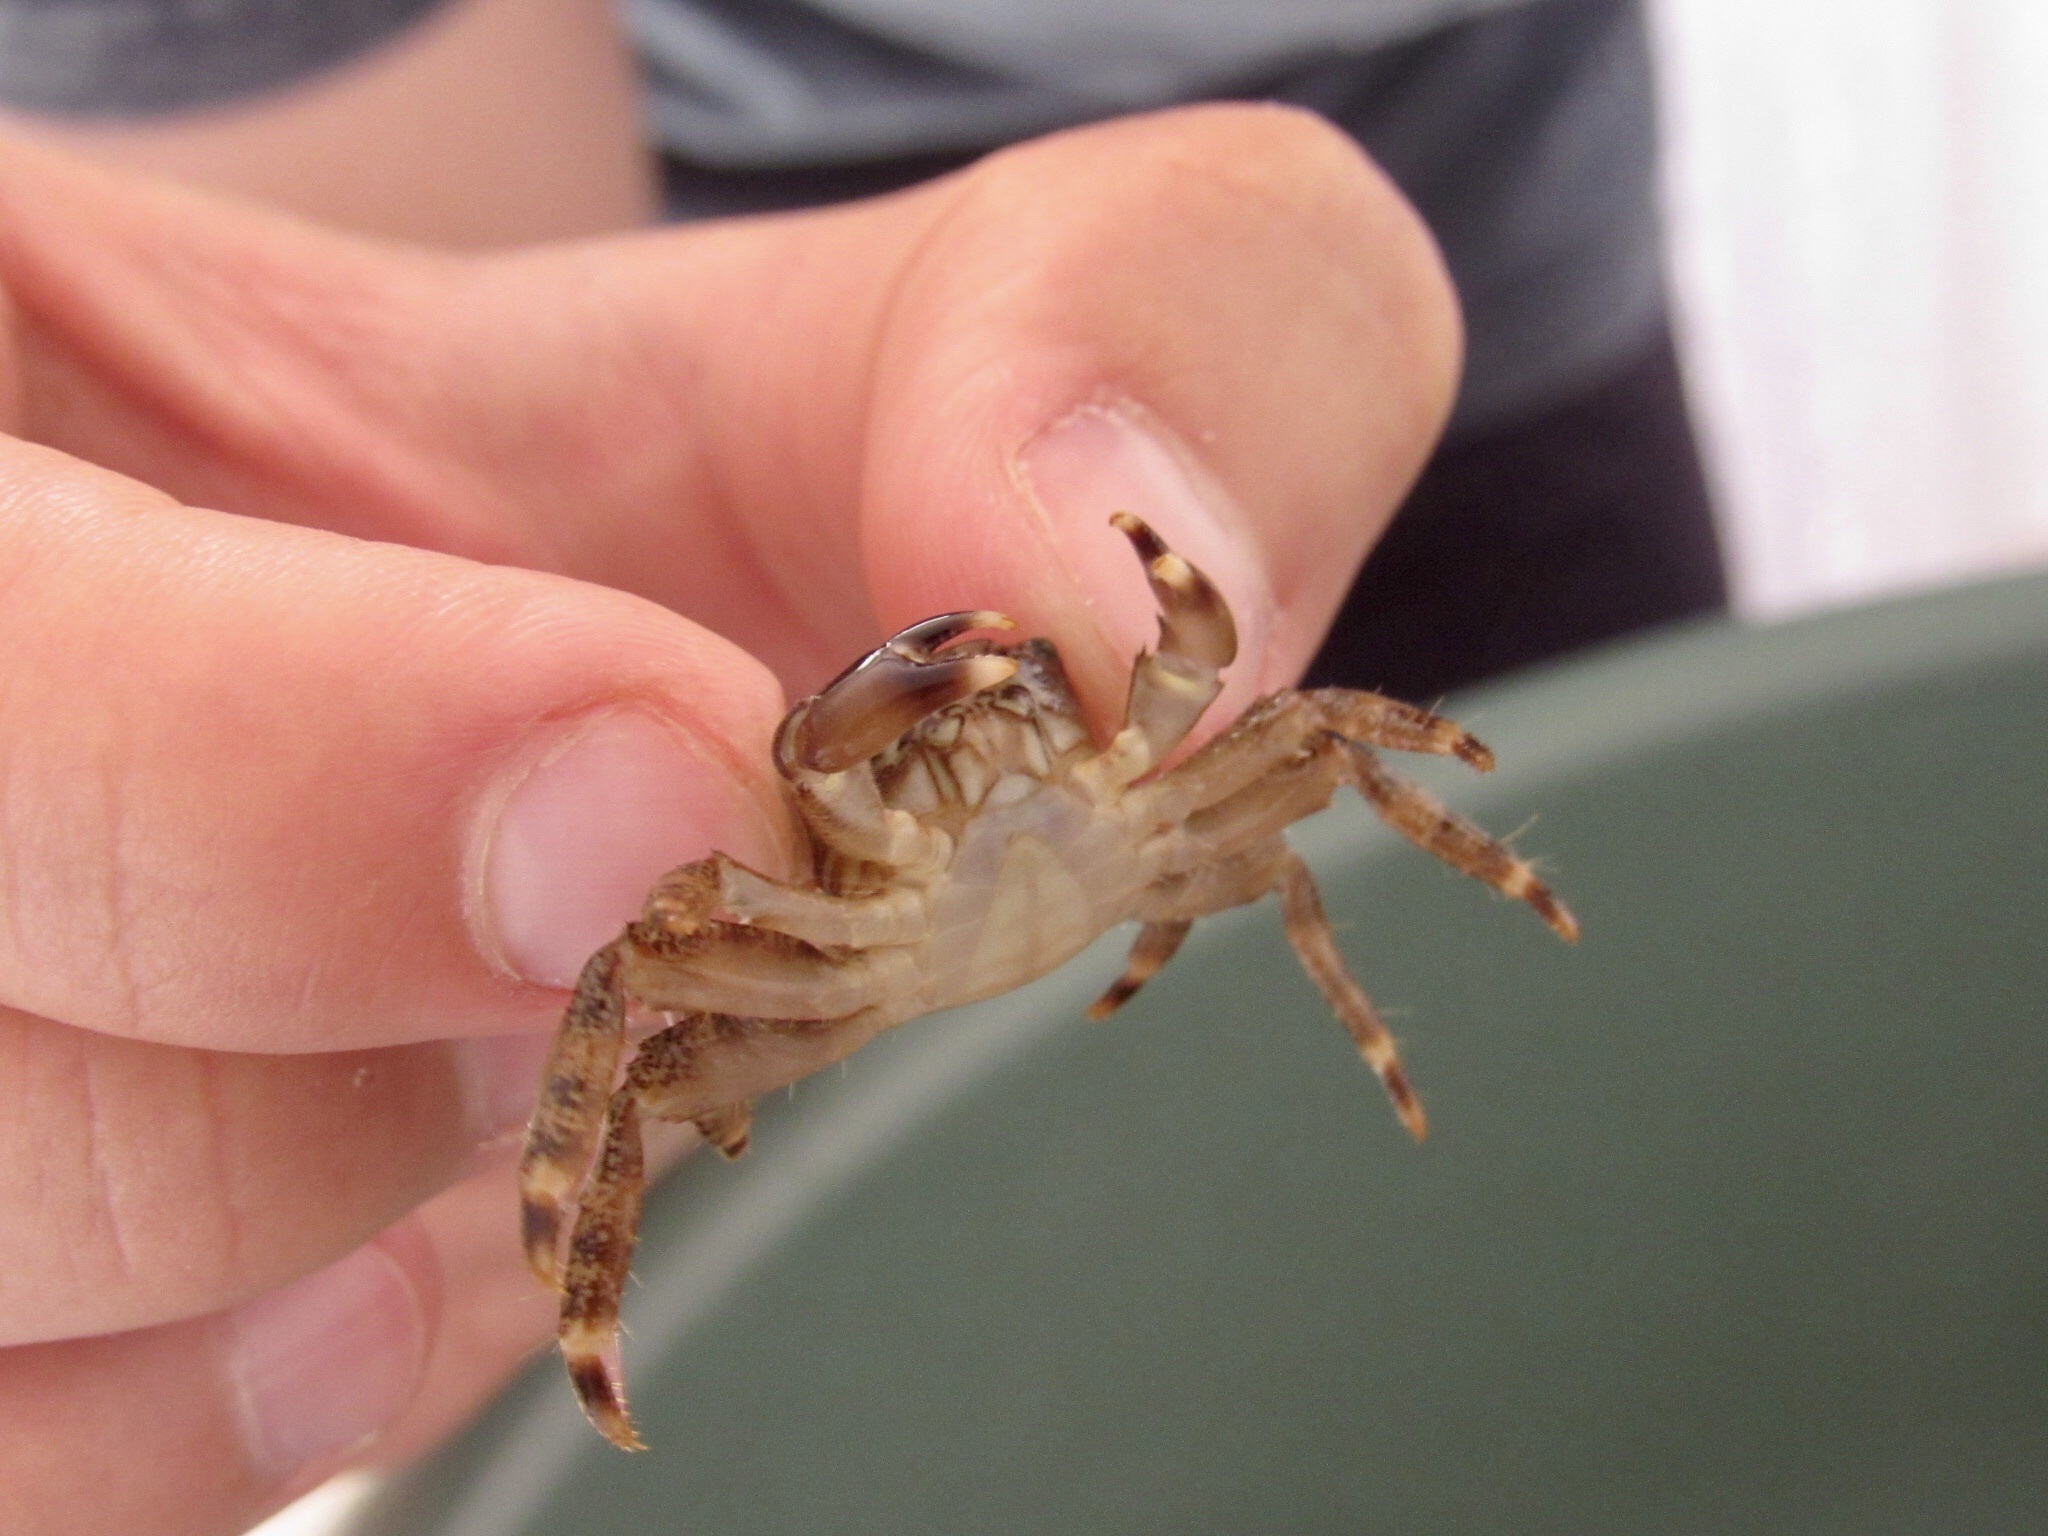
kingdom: Animalia
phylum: Arthropoda
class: Malacostraca
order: Decapoda
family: Grapsidae
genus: Pachygrapsus
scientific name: Pachygrapsus marmoratus
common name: Marbled rock crab
